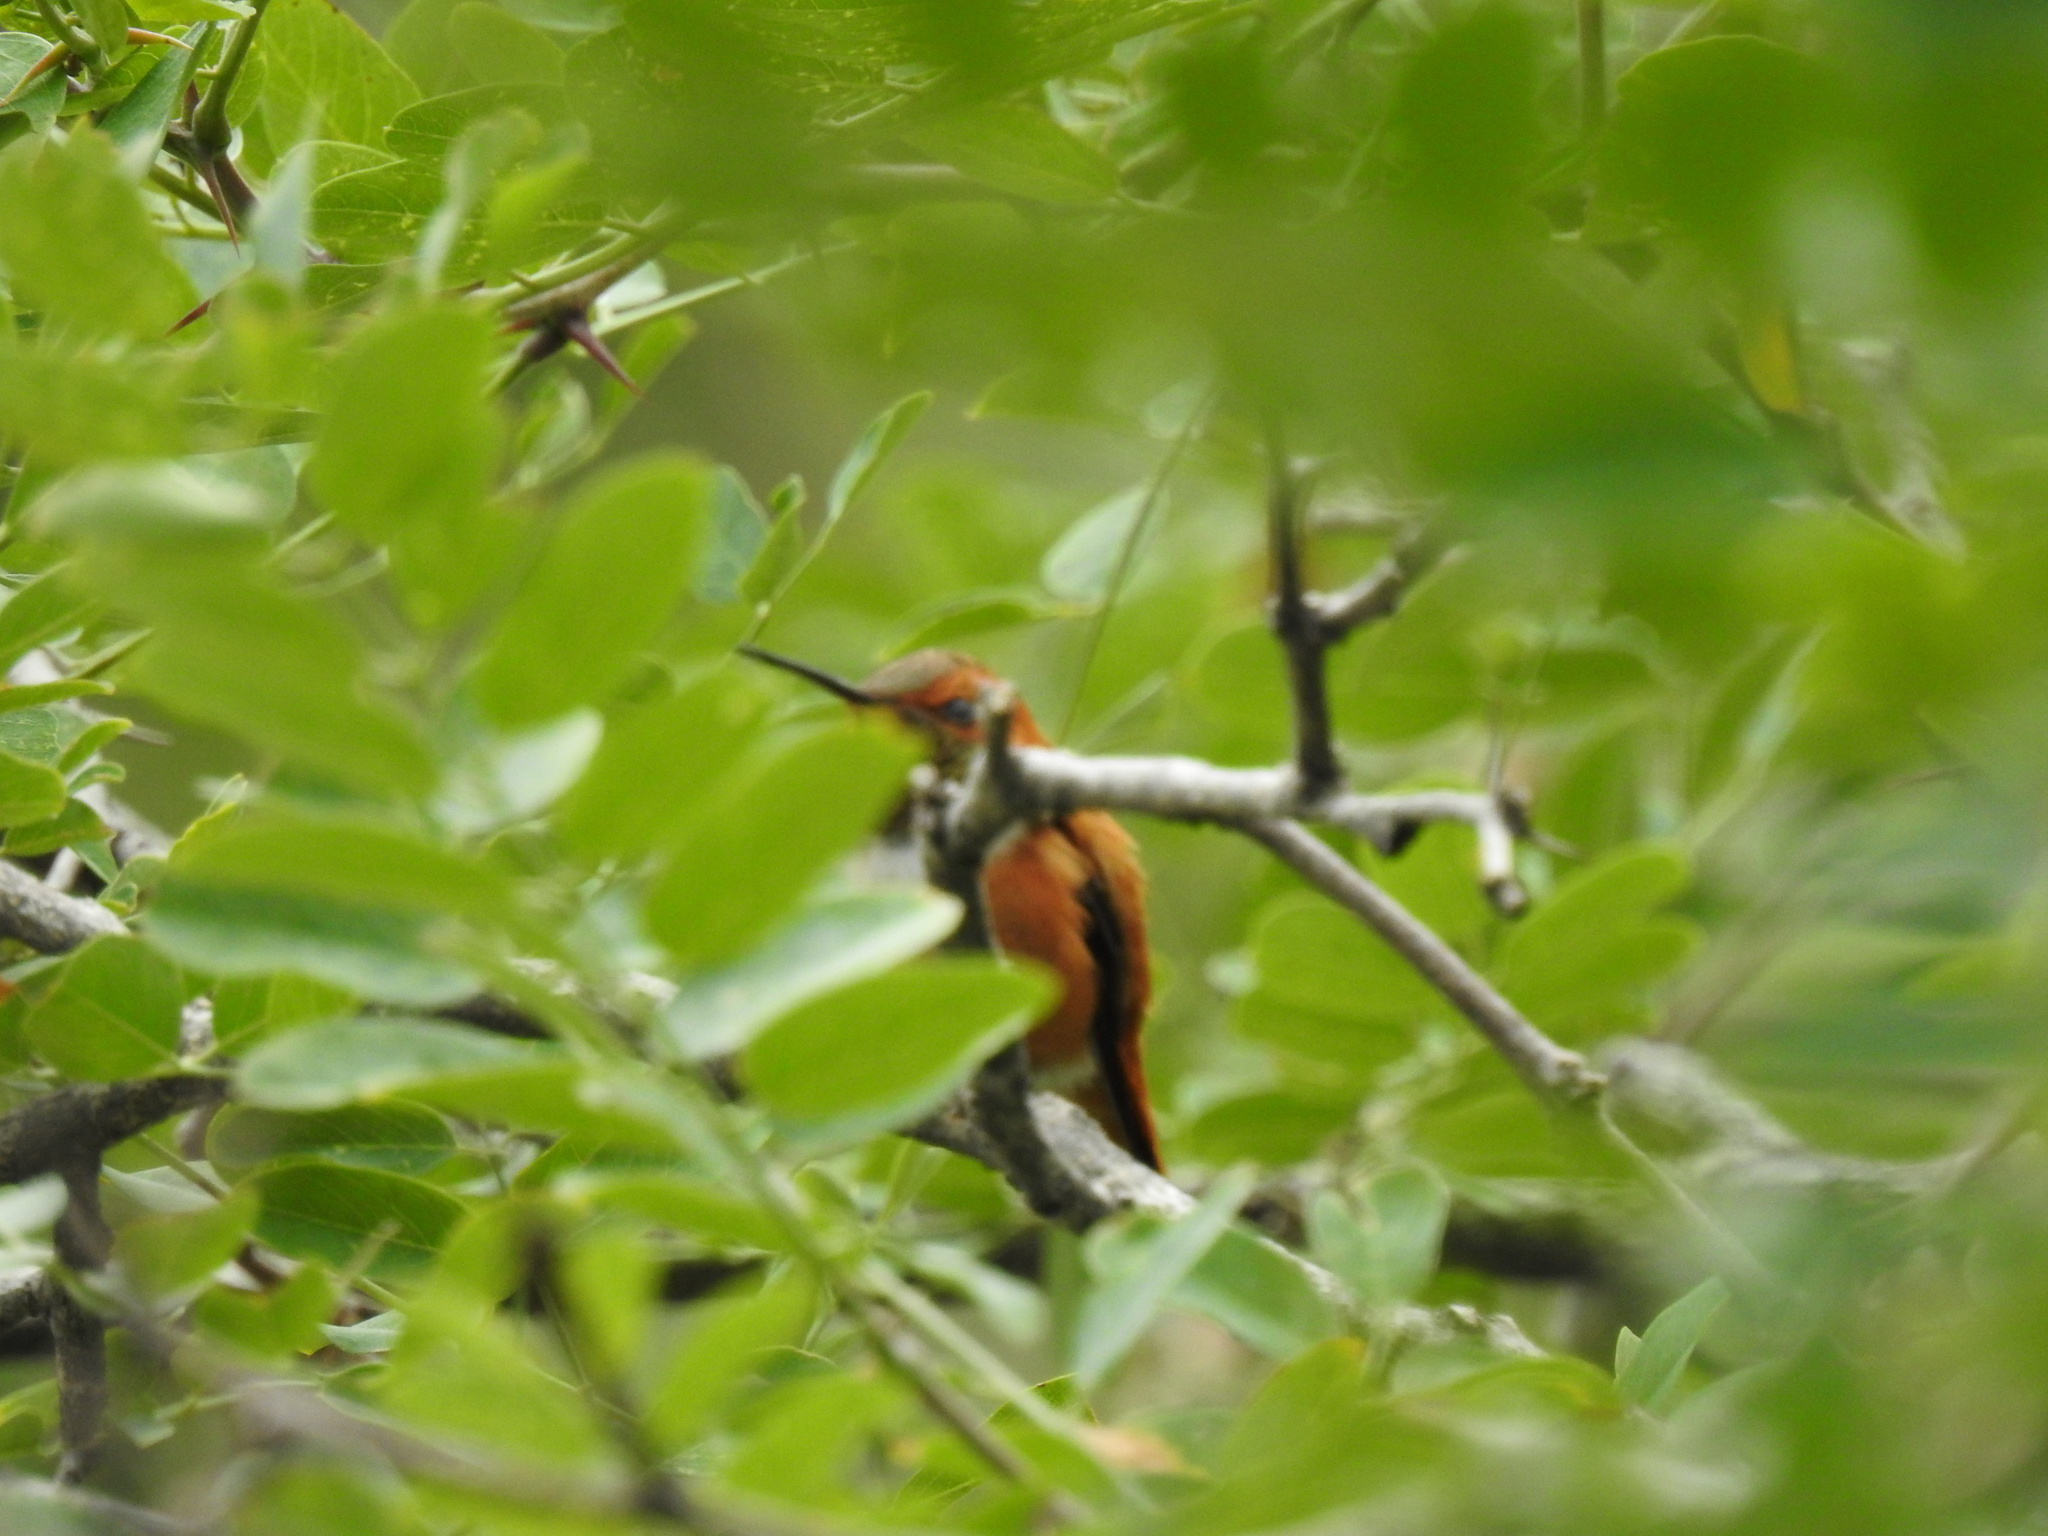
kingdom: Animalia
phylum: Chordata
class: Aves
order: Apodiformes
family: Trochilidae
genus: Selasphorus
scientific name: Selasphorus rufus
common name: Rufous hummingbird
